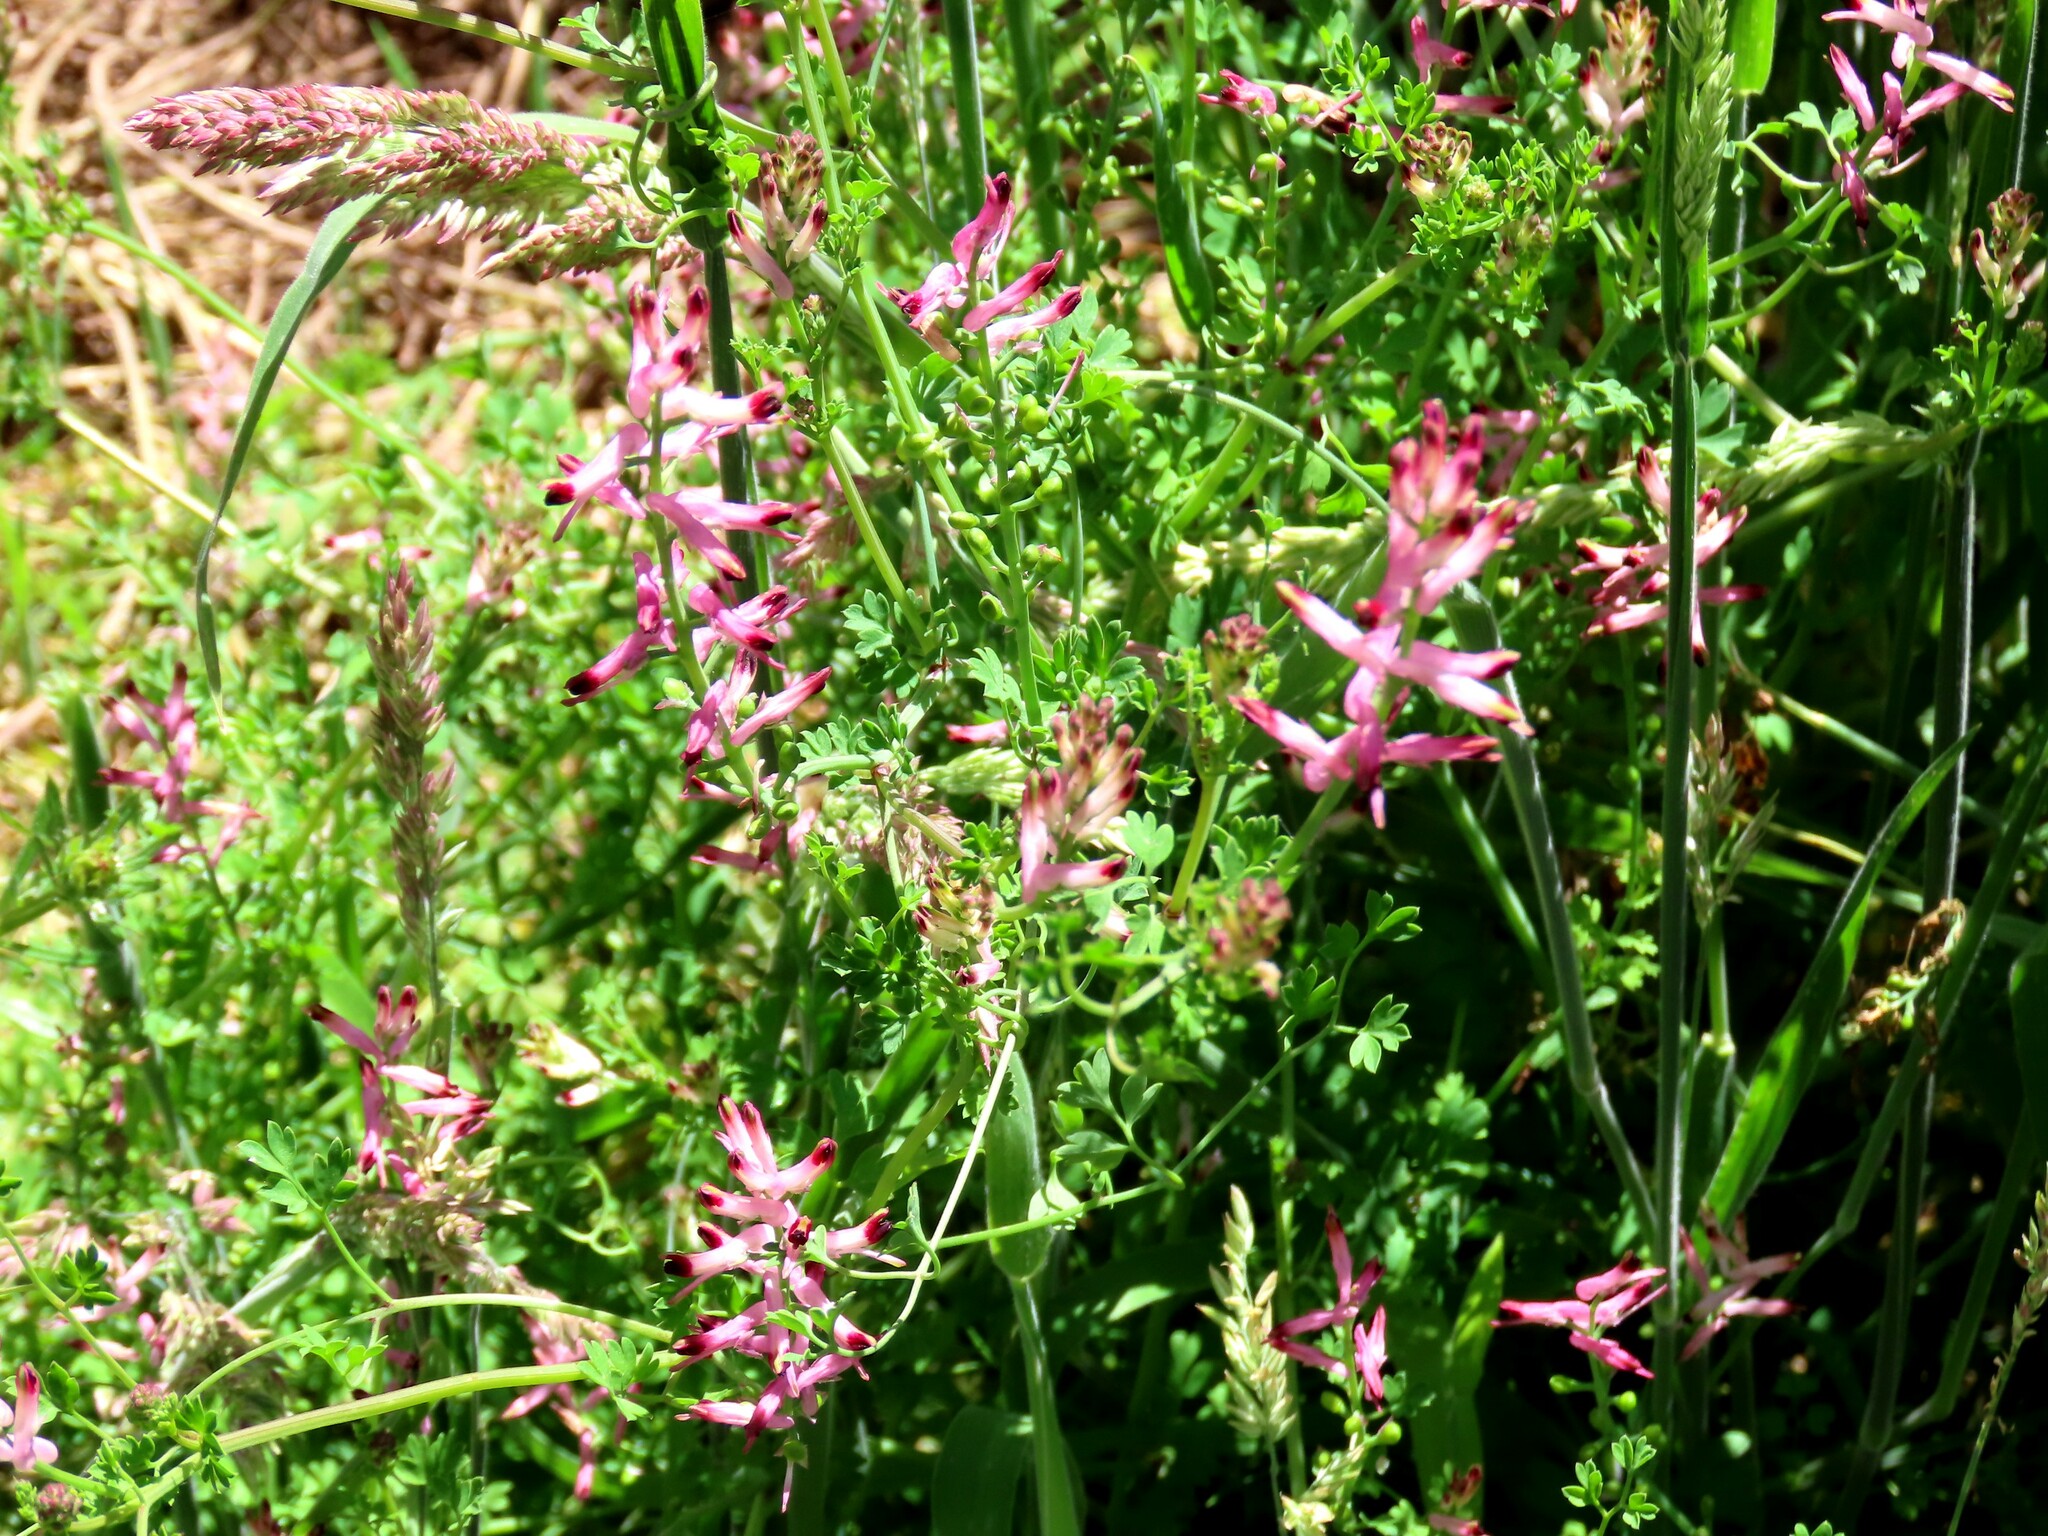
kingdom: Plantae
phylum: Tracheophyta
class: Magnoliopsida
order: Ranunculales
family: Papaveraceae
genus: Fumaria
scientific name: Fumaria bastardii
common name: Tall ramping-fumitory
